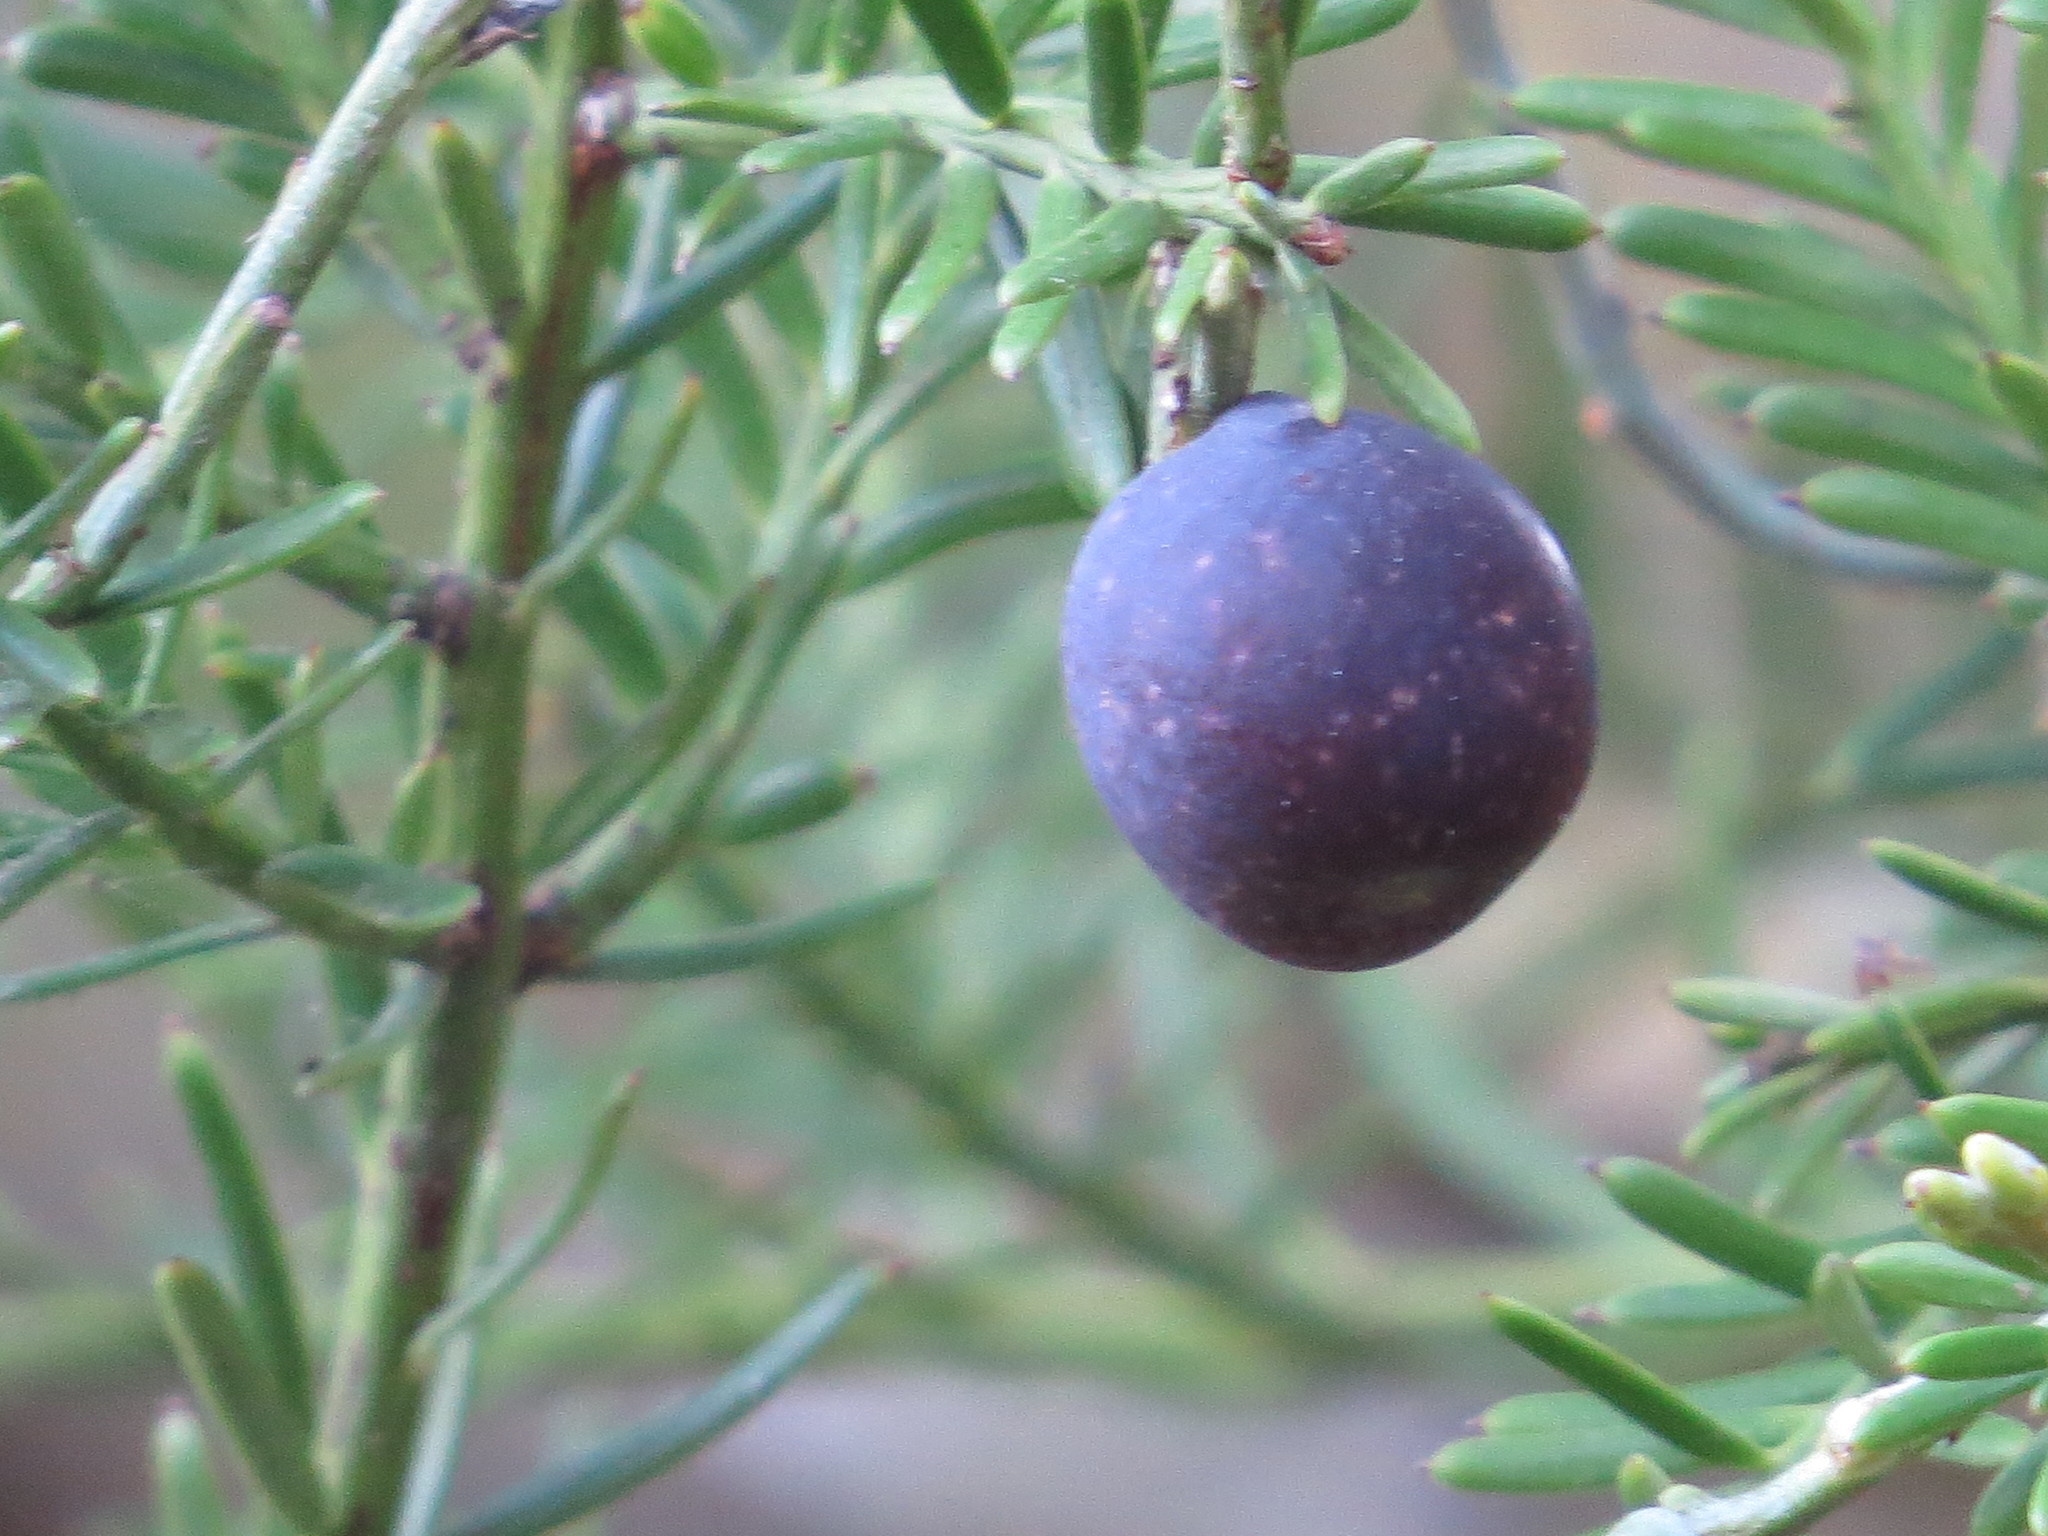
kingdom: Plantae
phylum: Tracheophyta
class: Pinopsida
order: Pinales
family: Podocarpaceae
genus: Prumnopitys
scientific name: Prumnopitys taxifolia
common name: Matai
